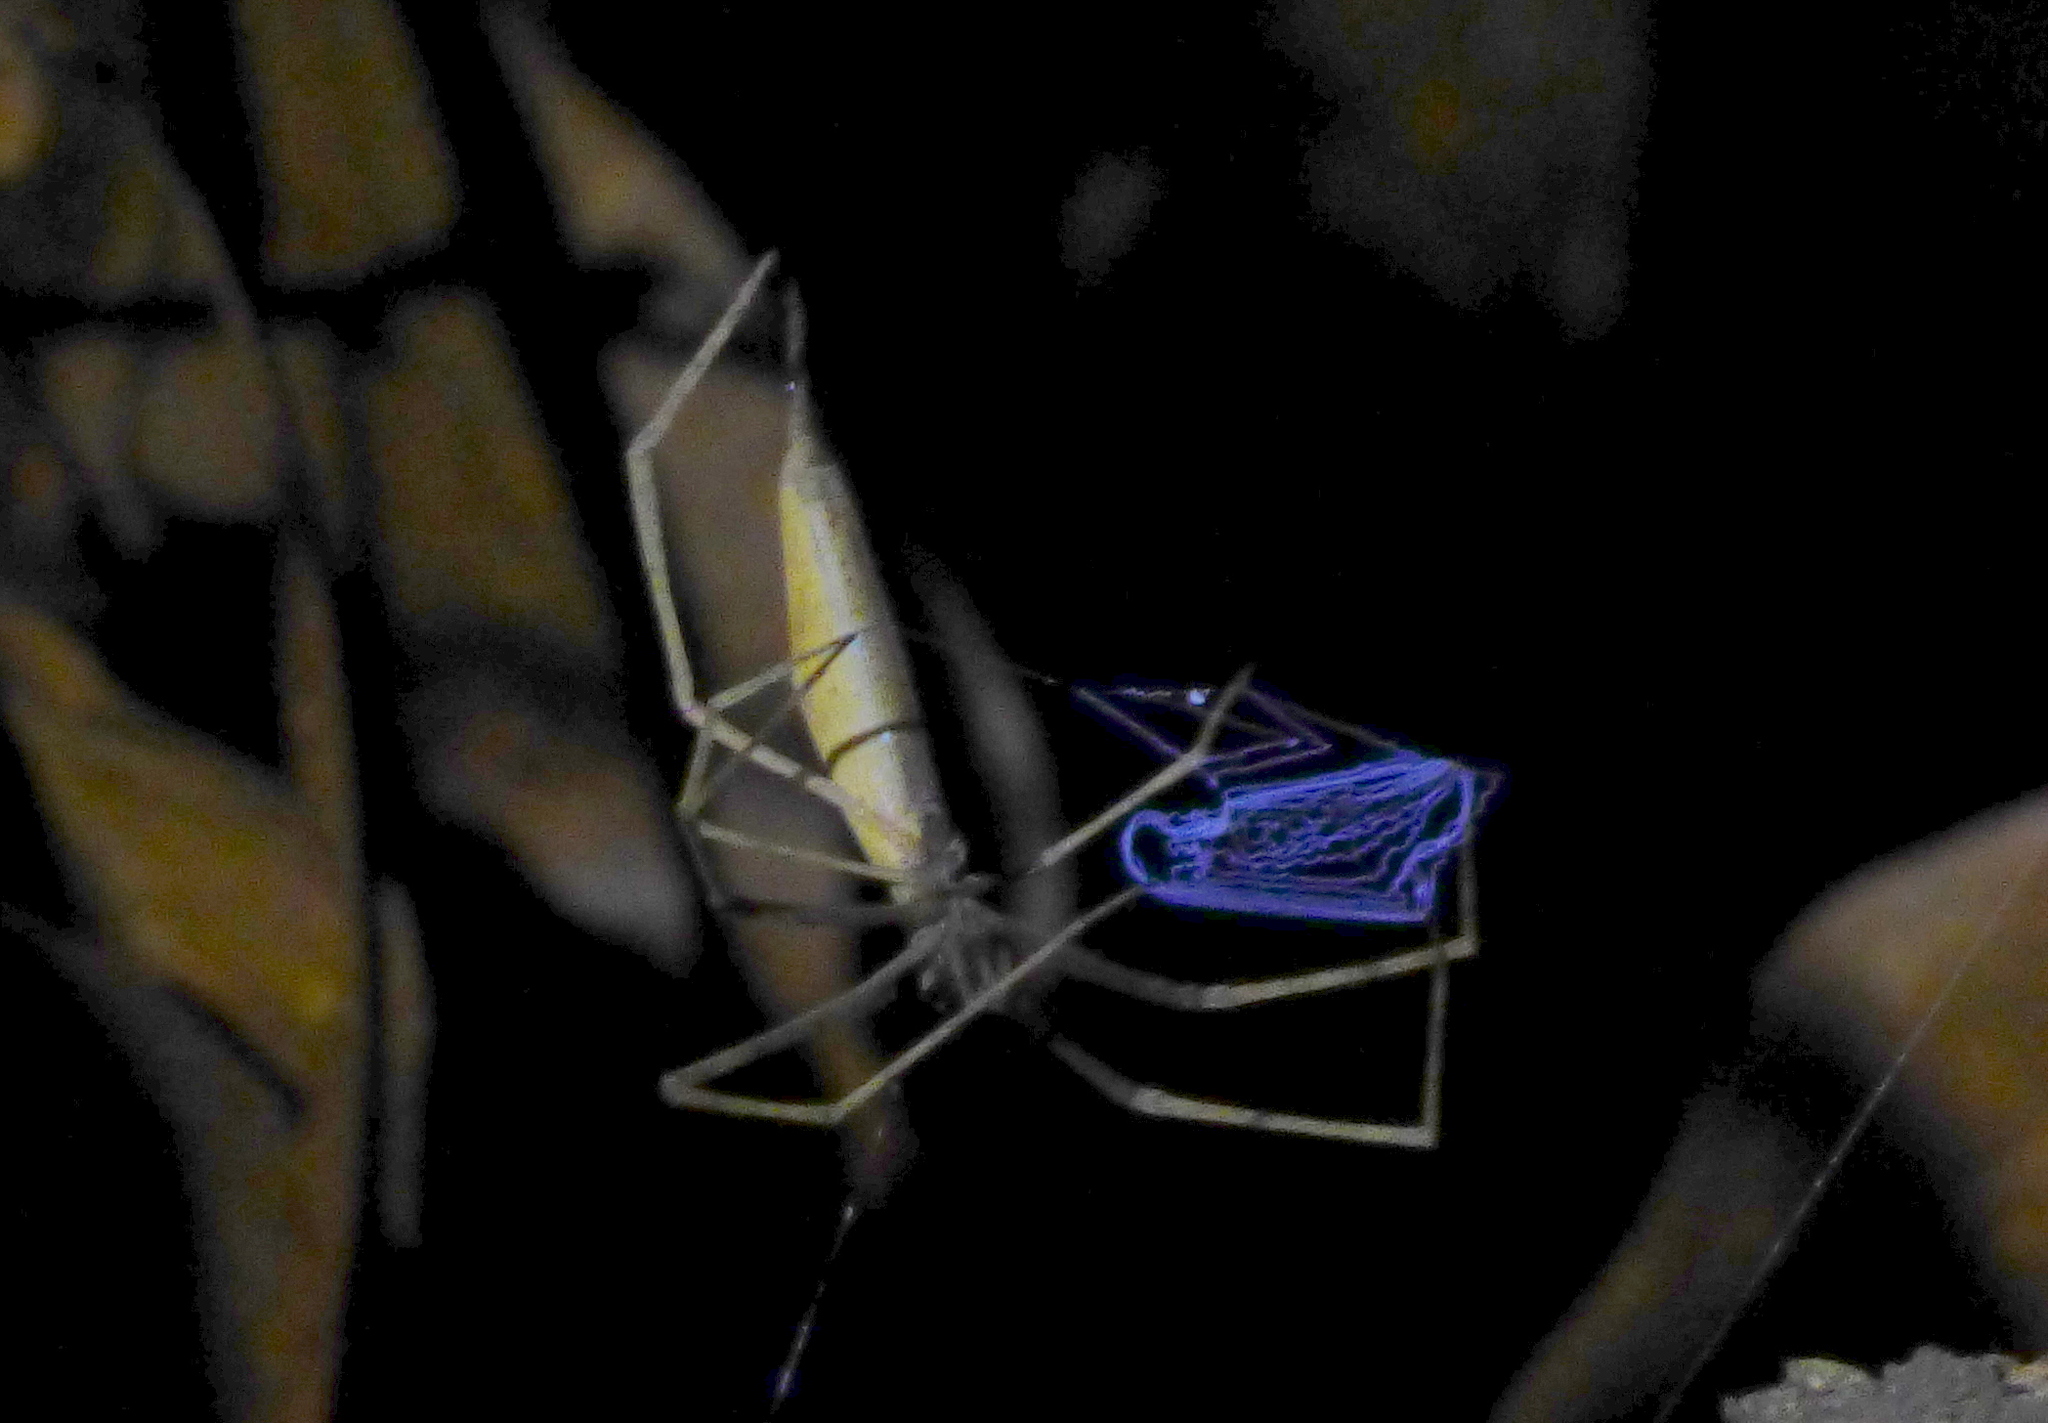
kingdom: Animalia
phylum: Arthropoda
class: Arachnida
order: Araneae
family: Deinopidae
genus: Deinopis
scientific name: Deinopis spinosa
